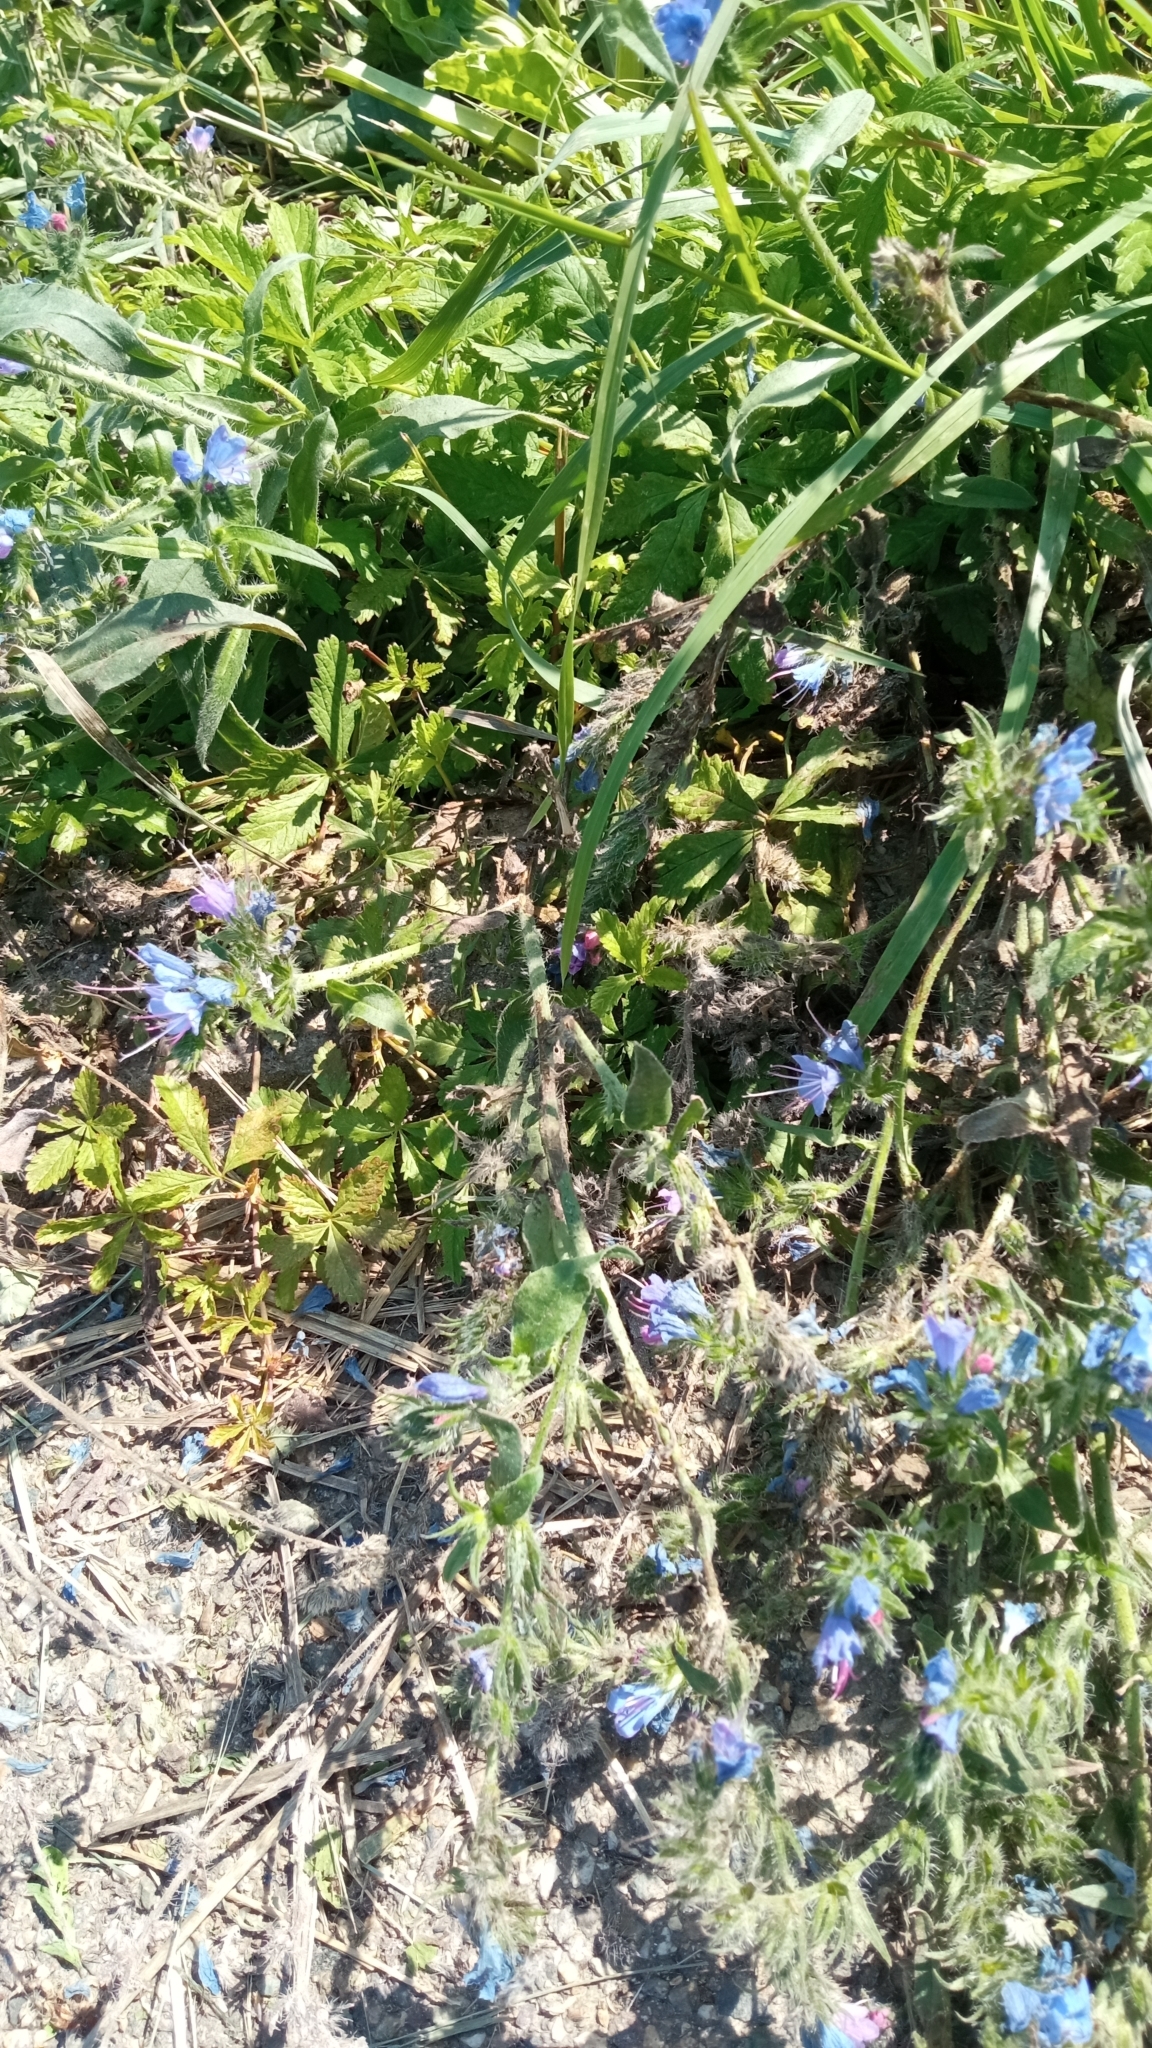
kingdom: Plantae
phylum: Tracheophyta
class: Magnoliopsida
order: Boraginales
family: Boraginaceae
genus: Echium
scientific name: Echium vulgare
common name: Common viper's bugloss
